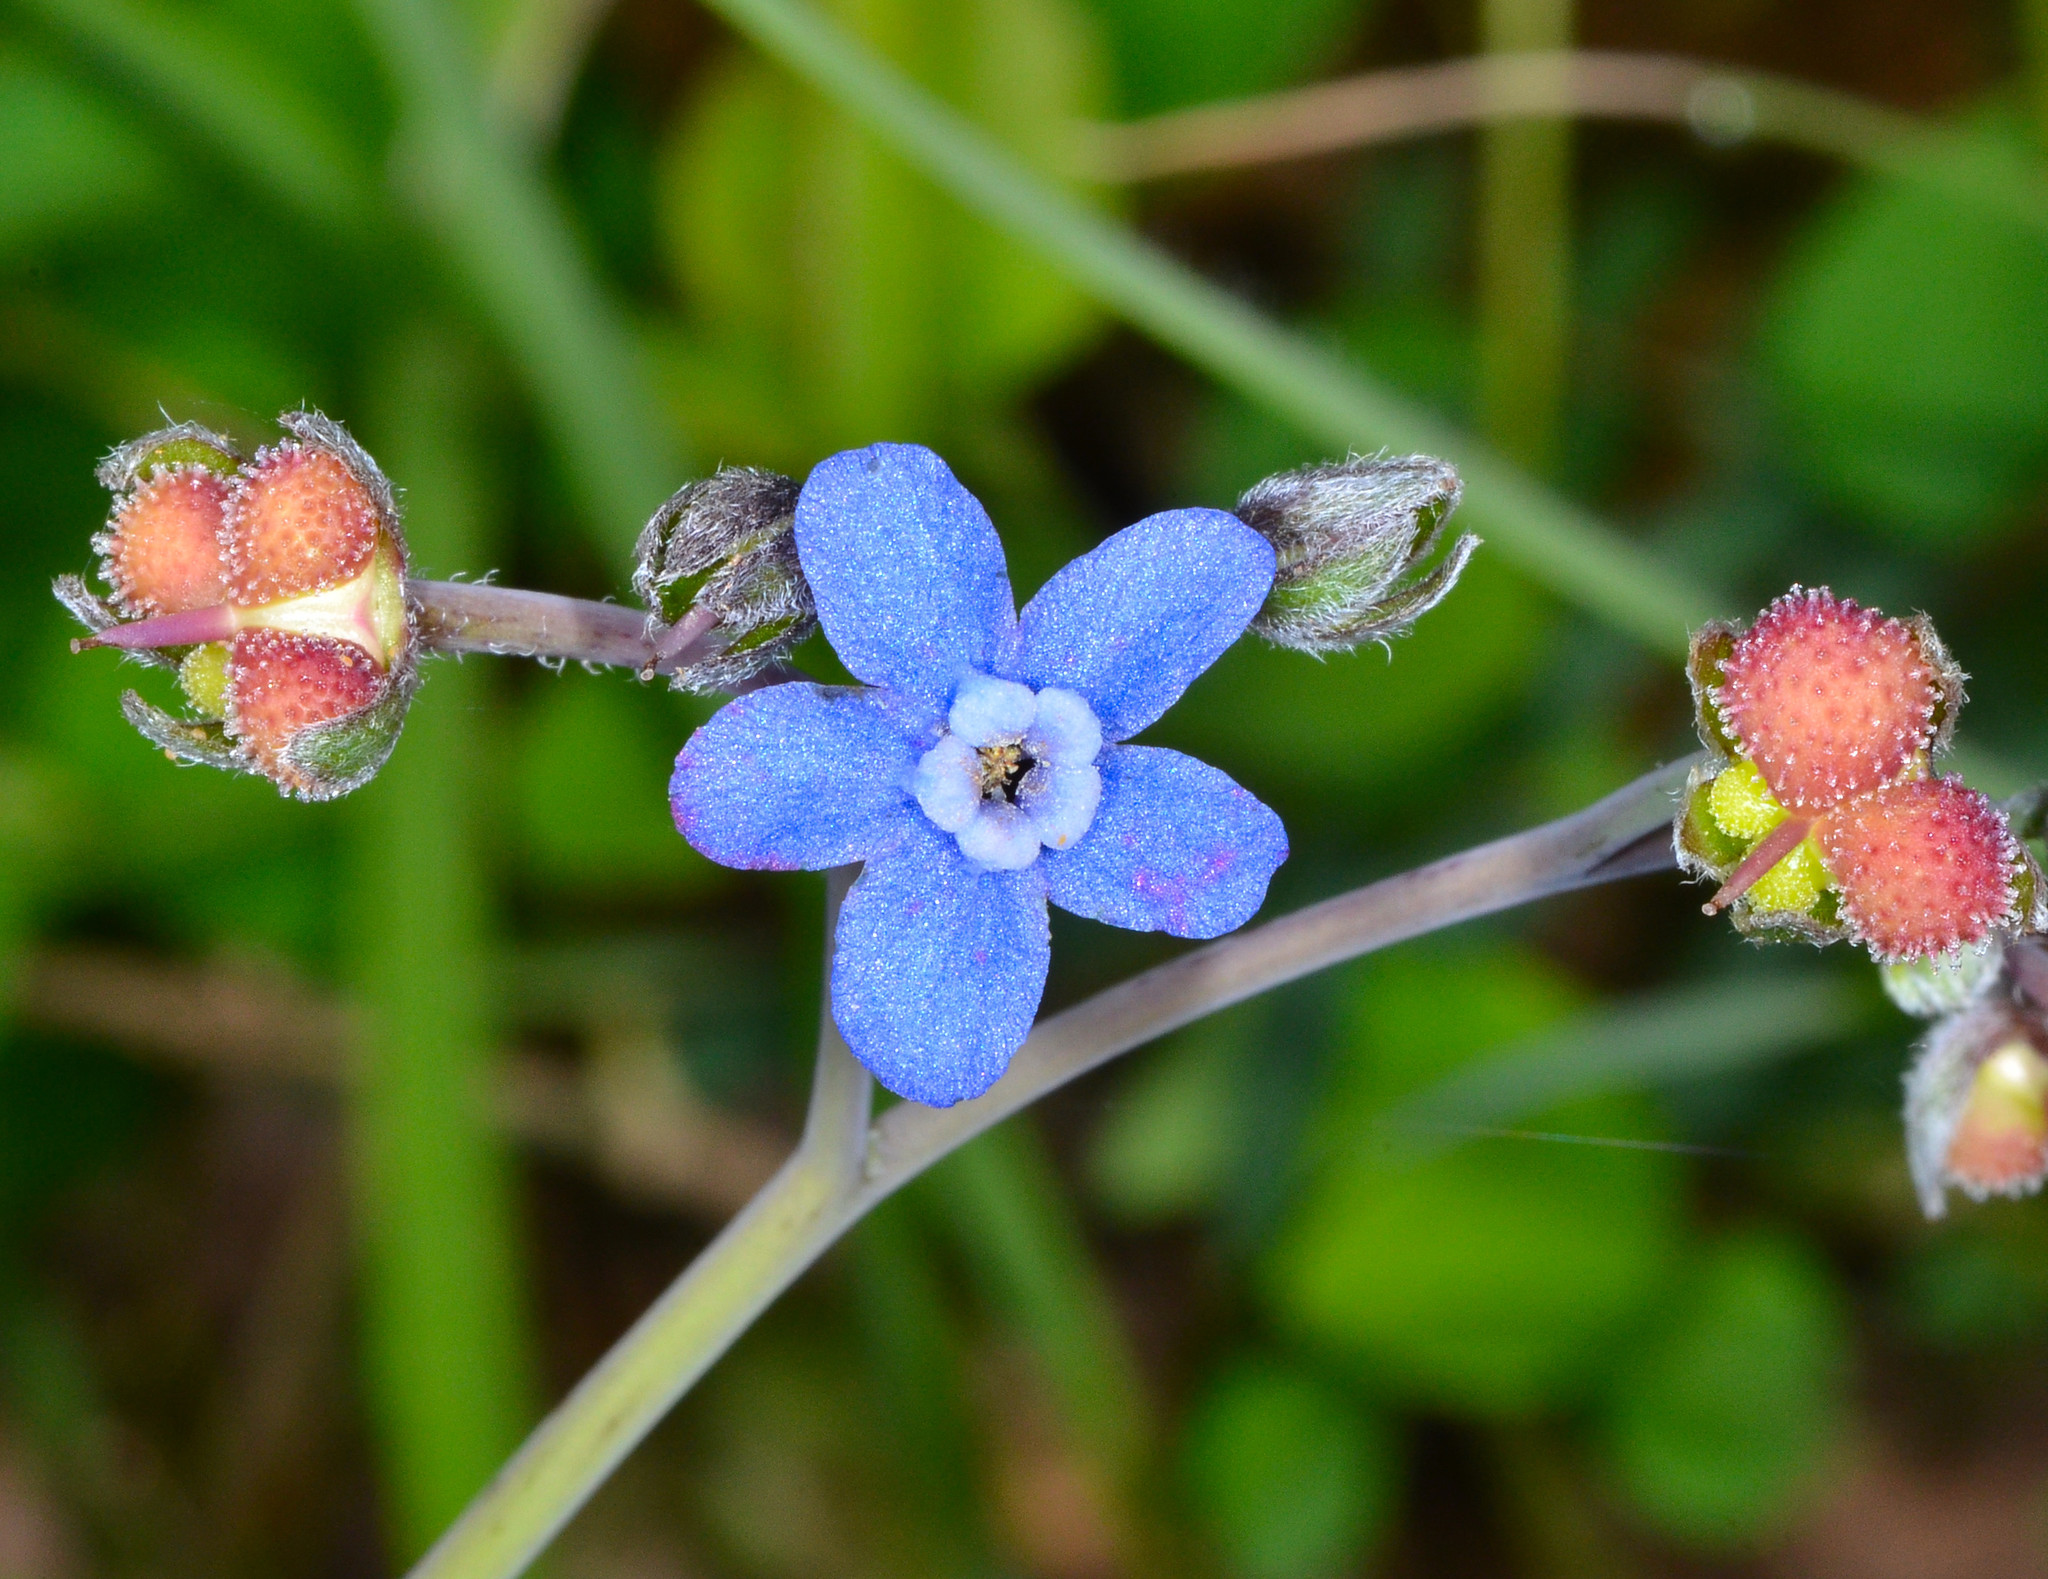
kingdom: Plantae
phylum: Tracheophyta
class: Magnoliopsida
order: Boraginales
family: Boraginaceae
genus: Adelinia
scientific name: Adelinia grande
